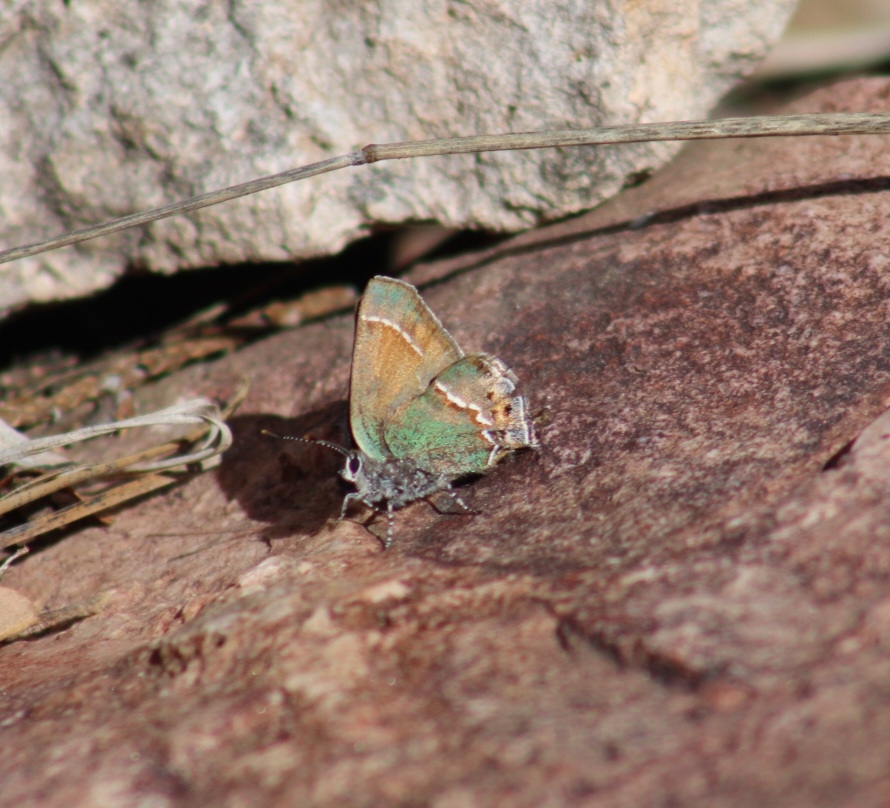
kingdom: Animalia
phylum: Arthropoda
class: Insecta
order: Lepidoptera
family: Lycaenidae
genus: Mitoura
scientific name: Mitoura gryneus
